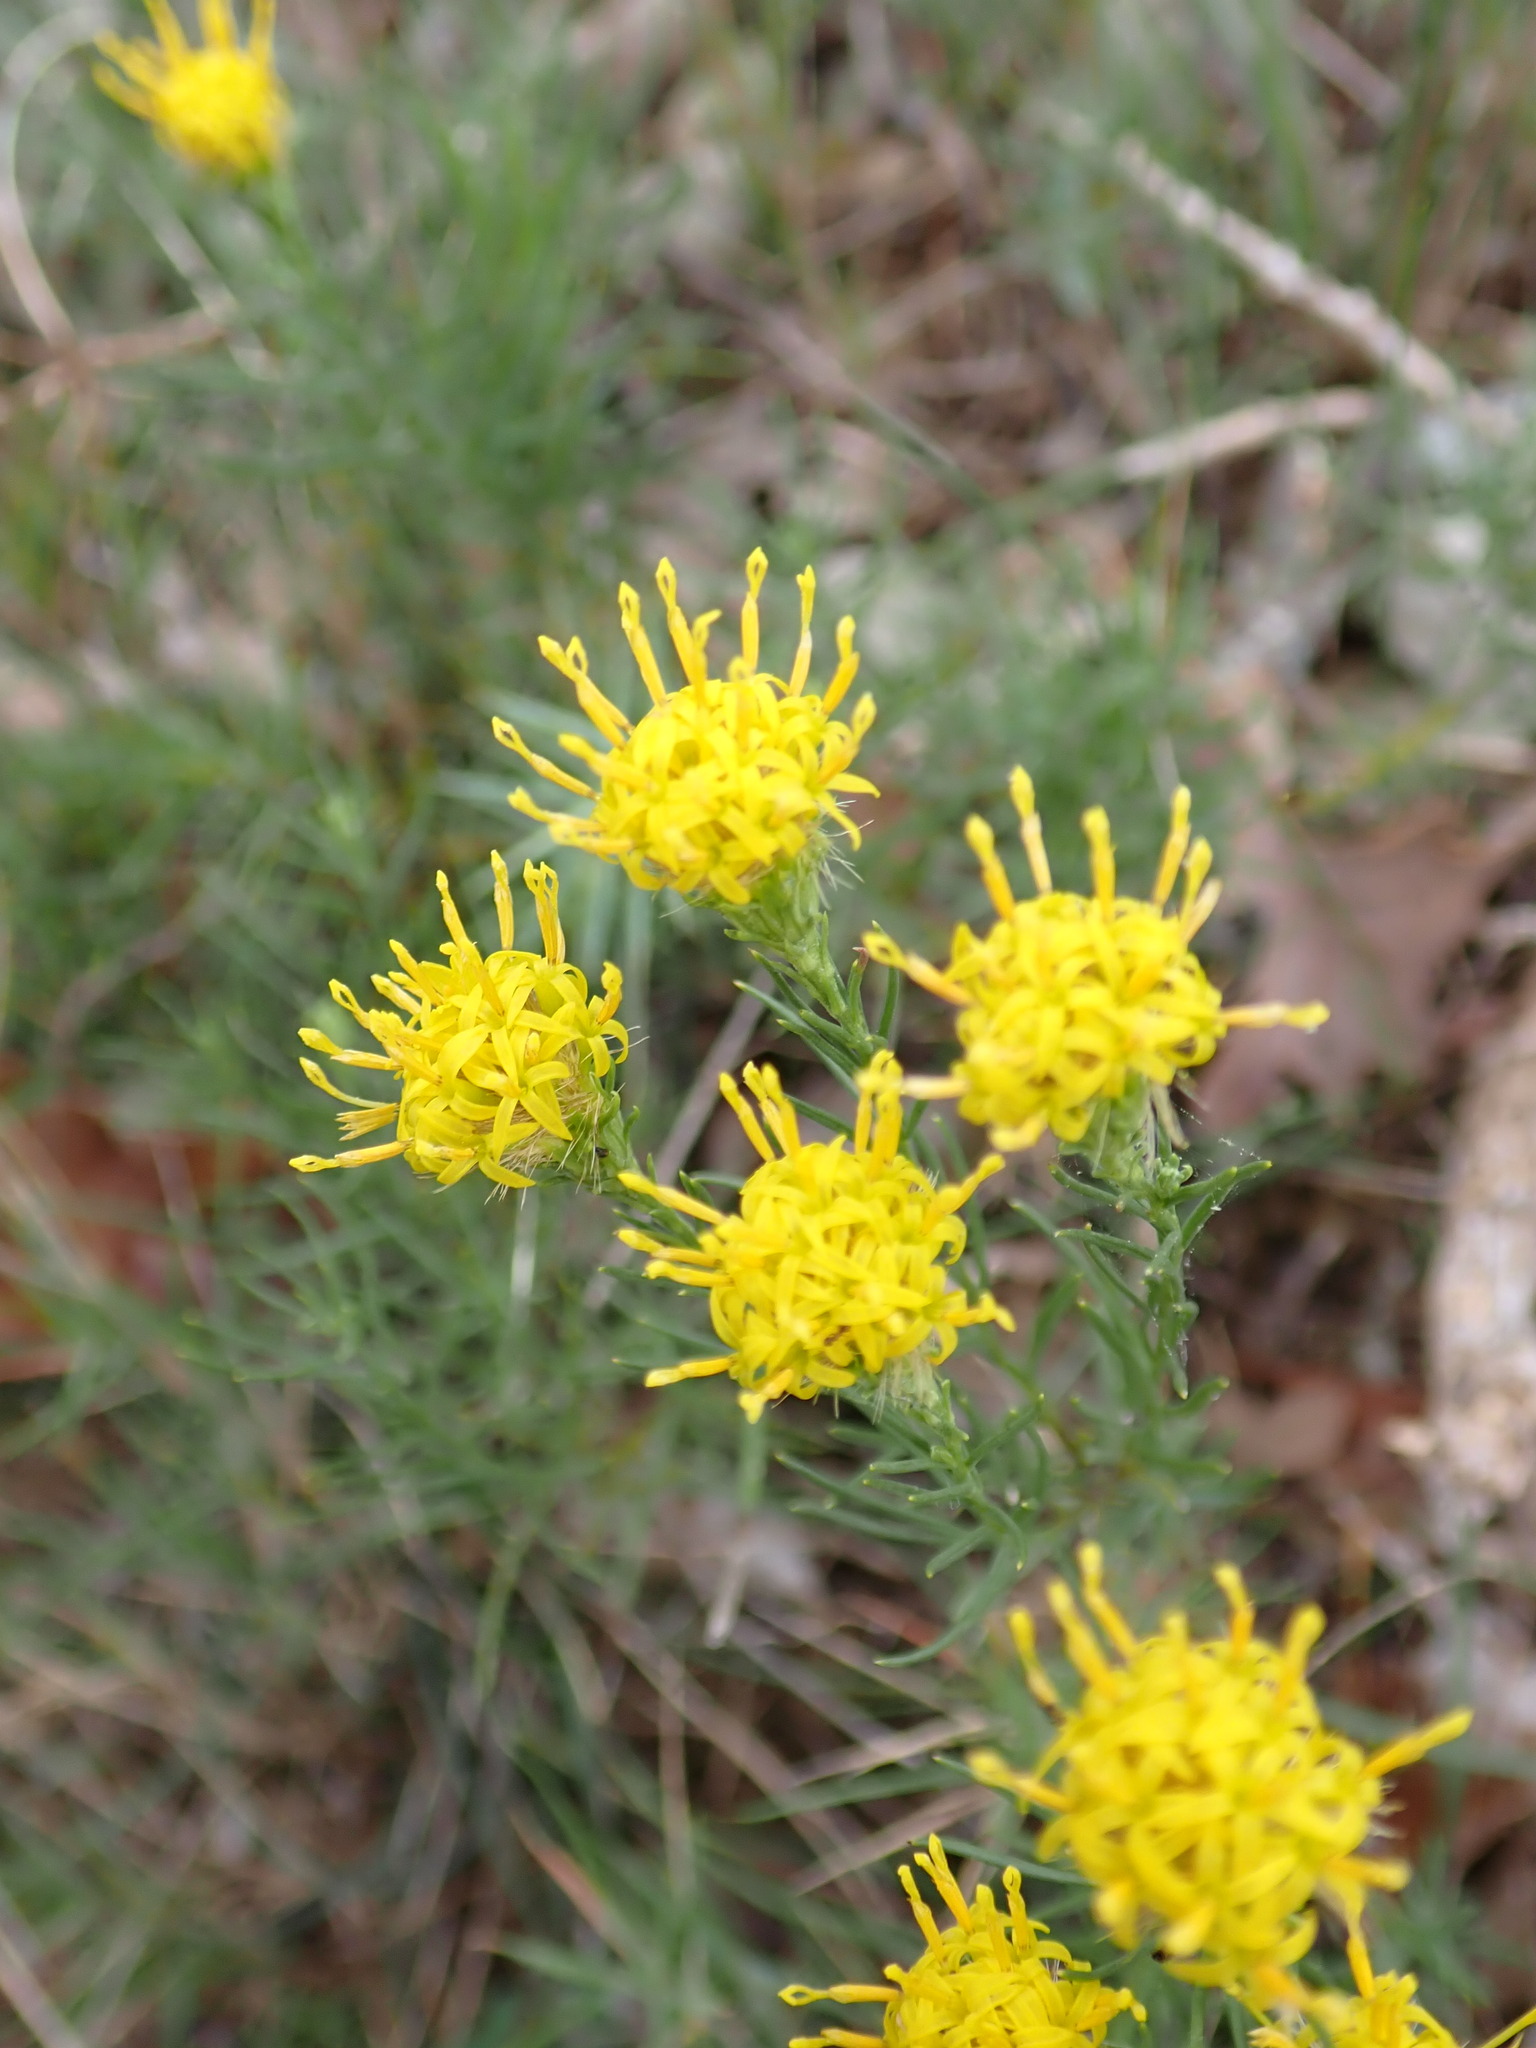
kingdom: Plantae
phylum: Tracheophyta
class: Magnoliopsida
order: Asterales
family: Asteraceae
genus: Galatella
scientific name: Galatella linosyris
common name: Goldilocks aster
